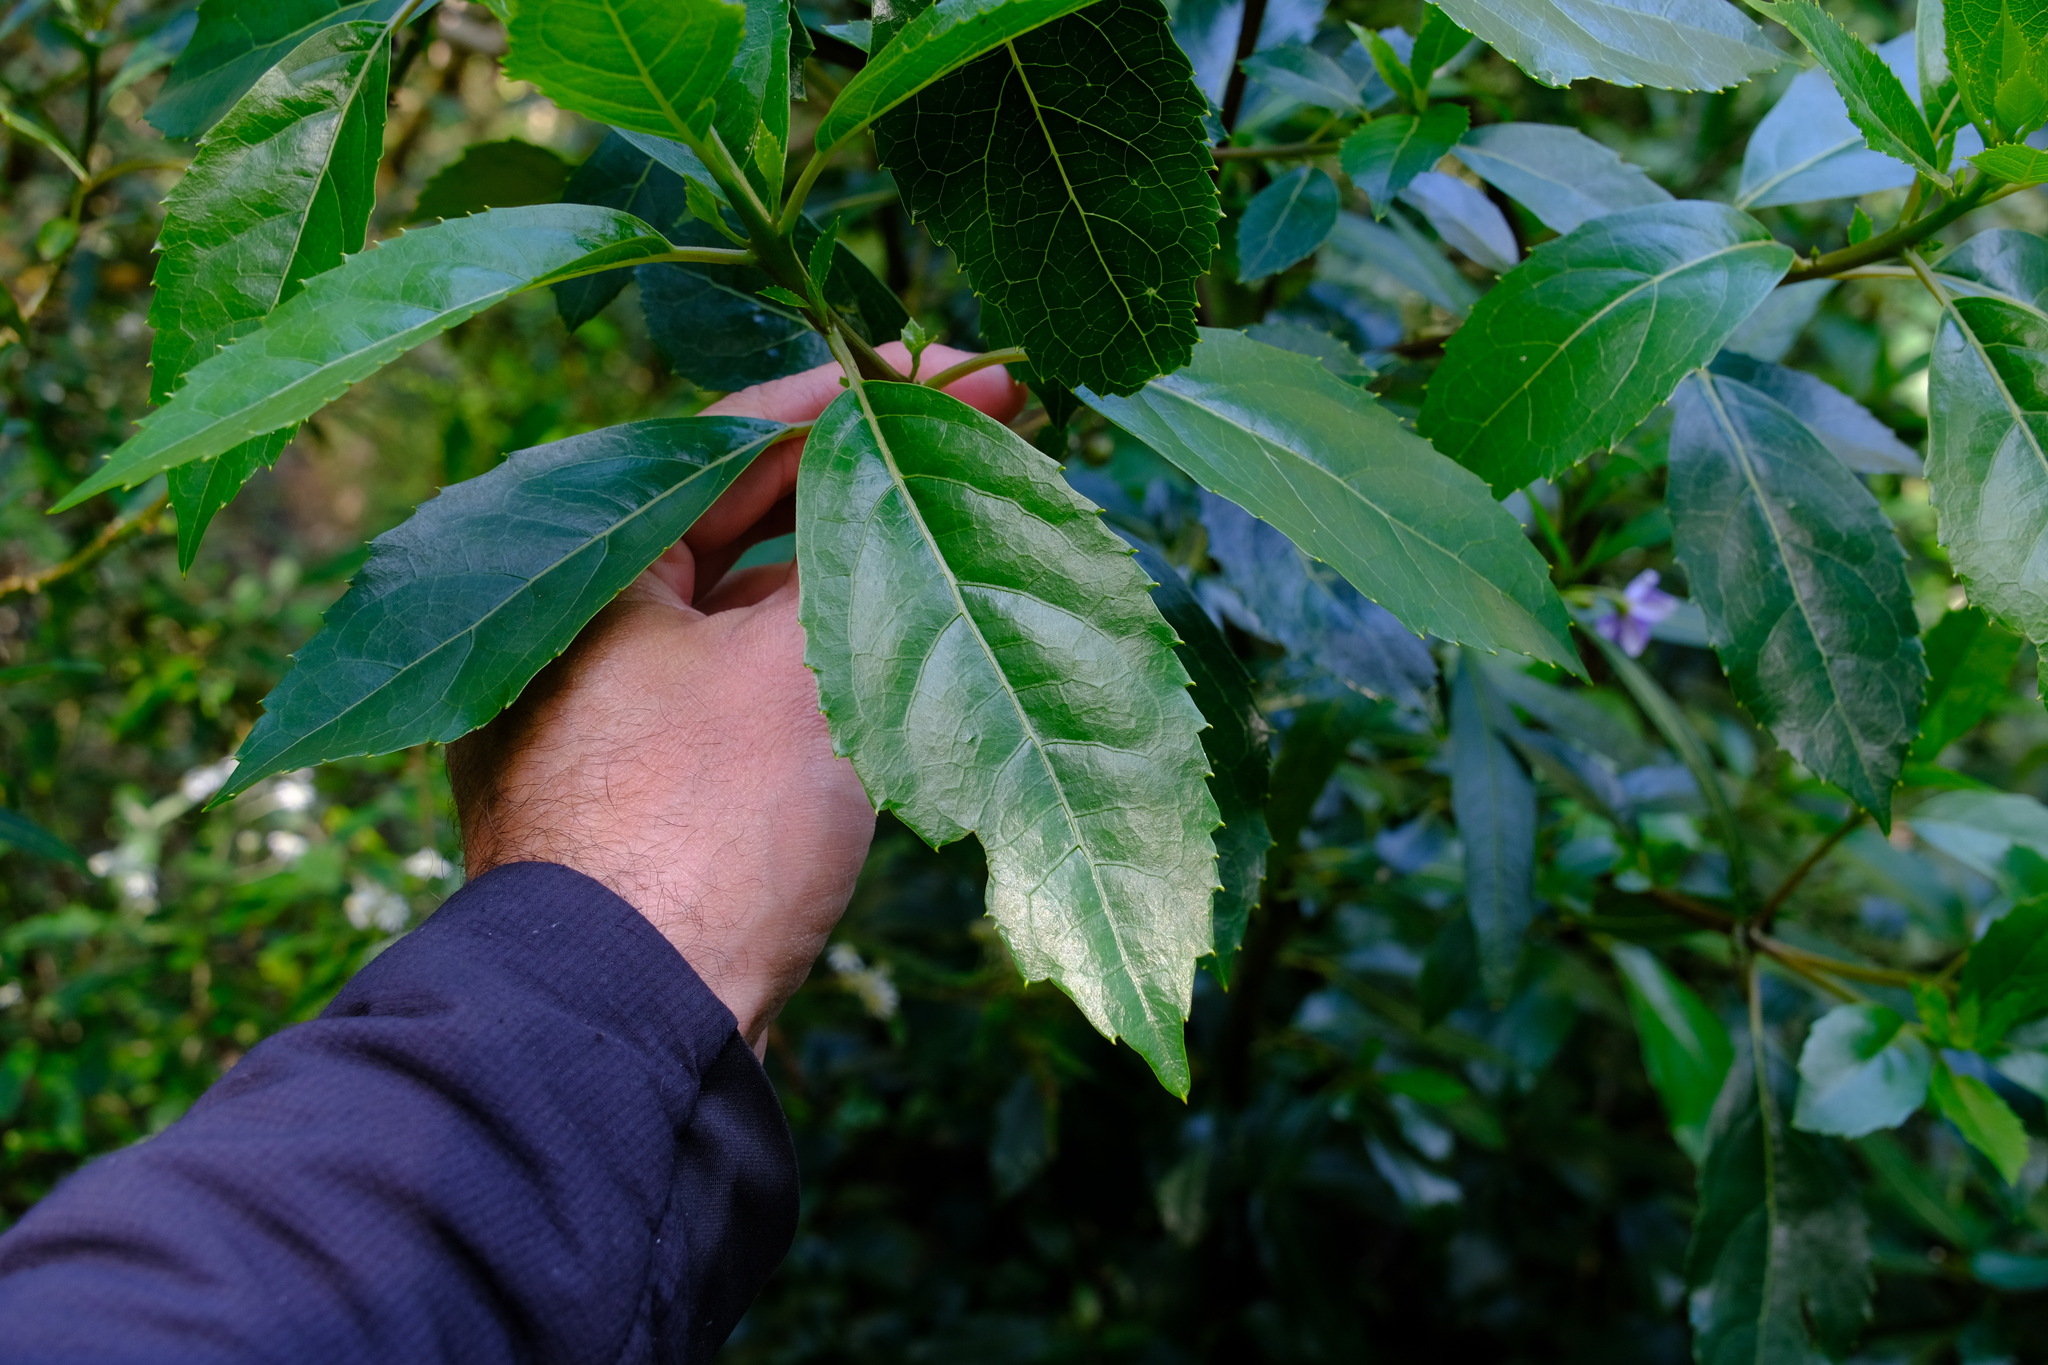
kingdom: Plantae
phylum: Tracheophyta
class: Magnoliopsida
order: Laurales
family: Monimiaceae
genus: Hedycarya
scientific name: Hedycarya angustifolia
